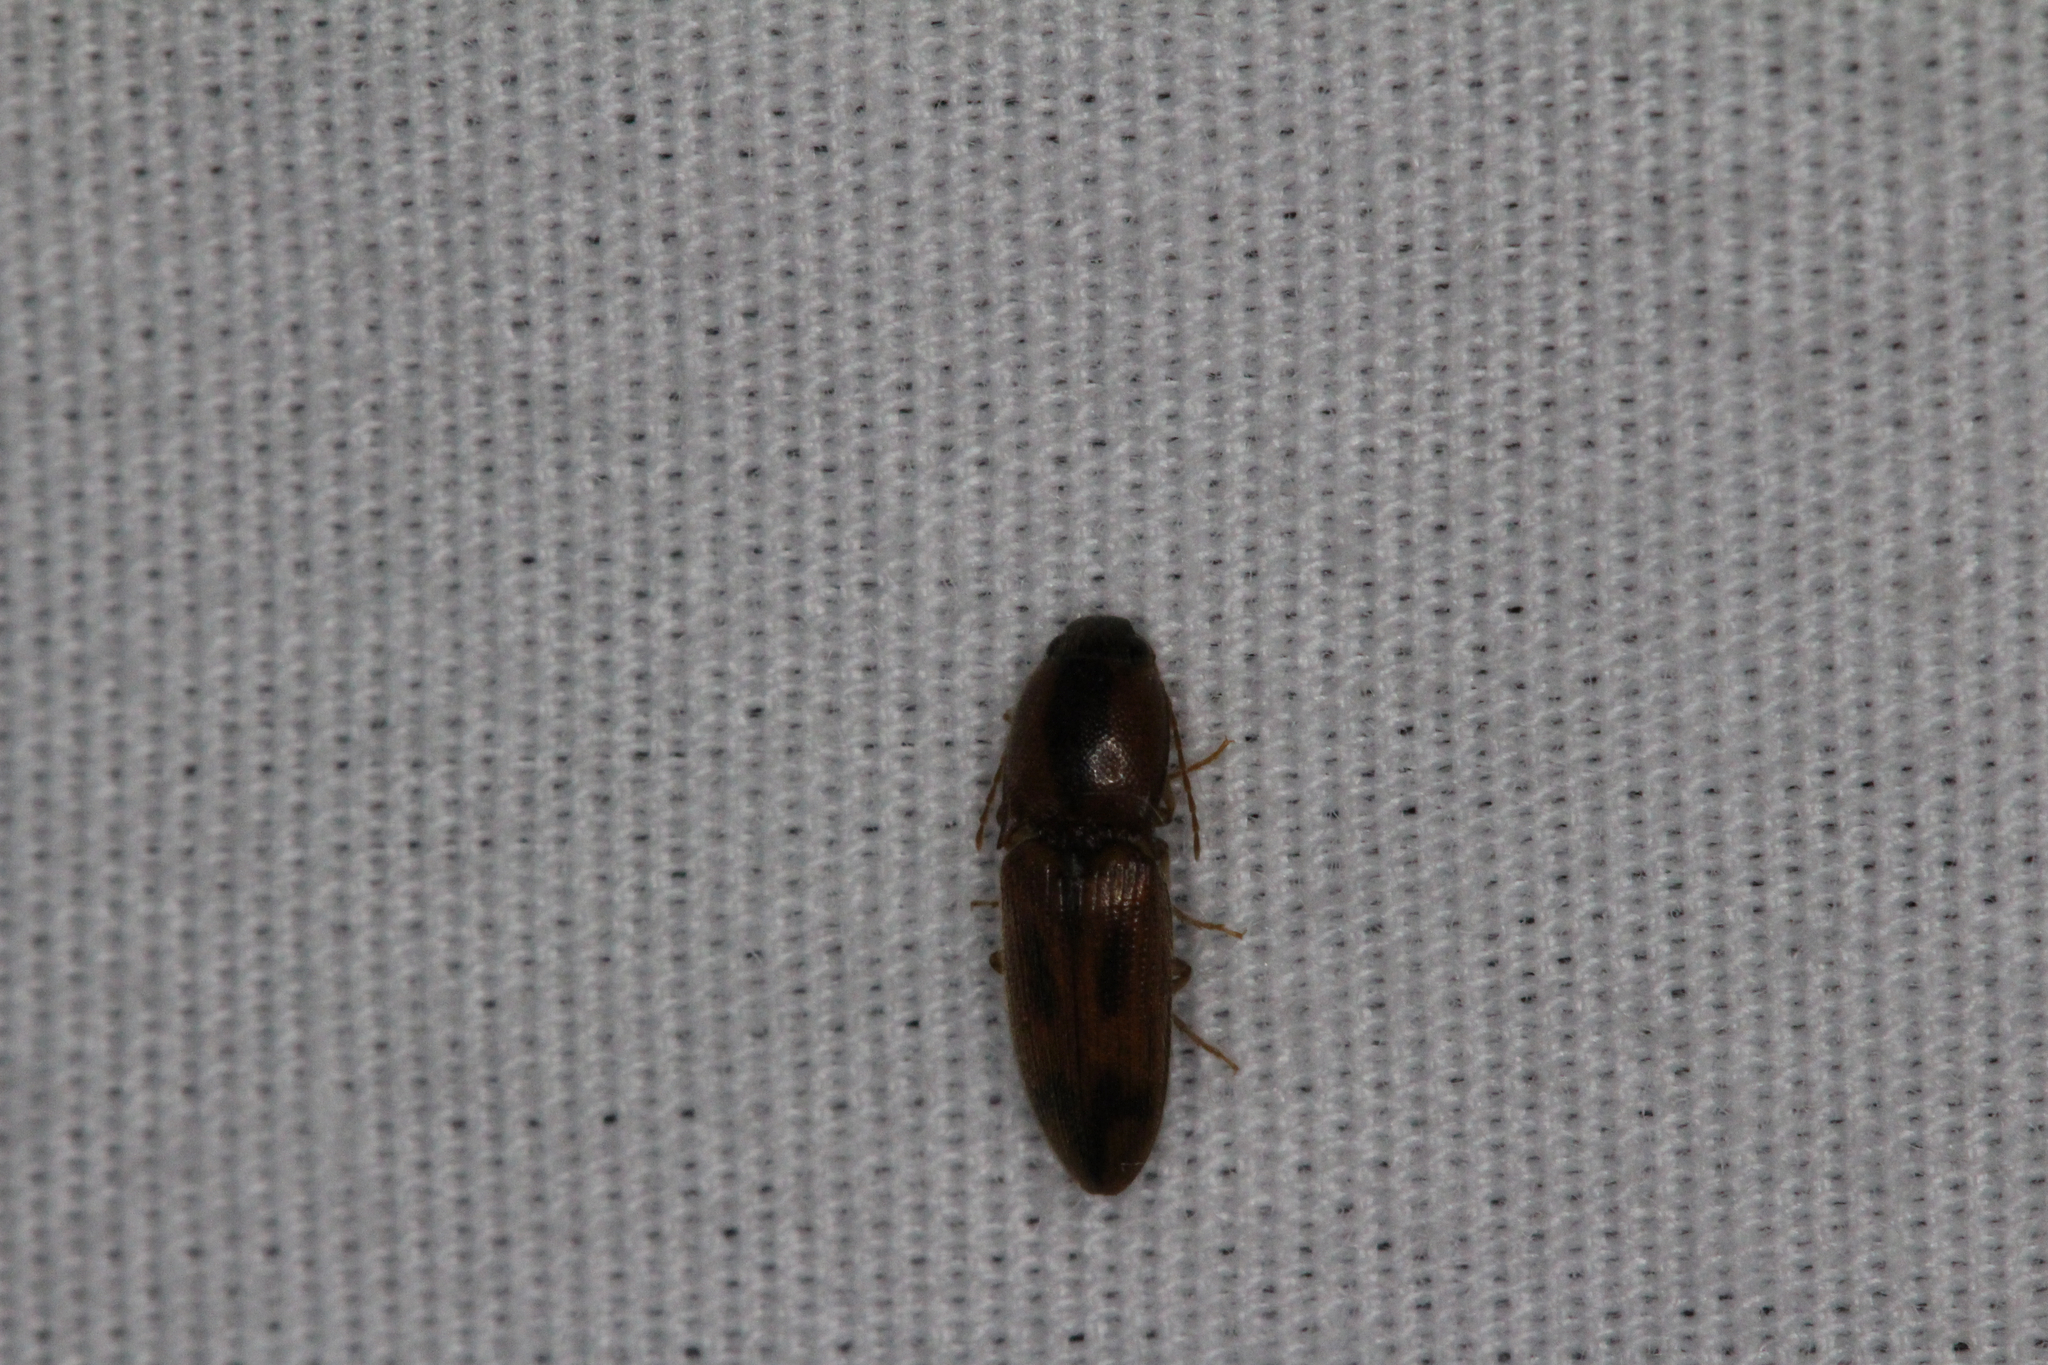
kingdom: Animalia
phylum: Arthropoda
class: Insecta
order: Coleoptera
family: Elateridae
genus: Aeolus
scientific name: Aeolus
